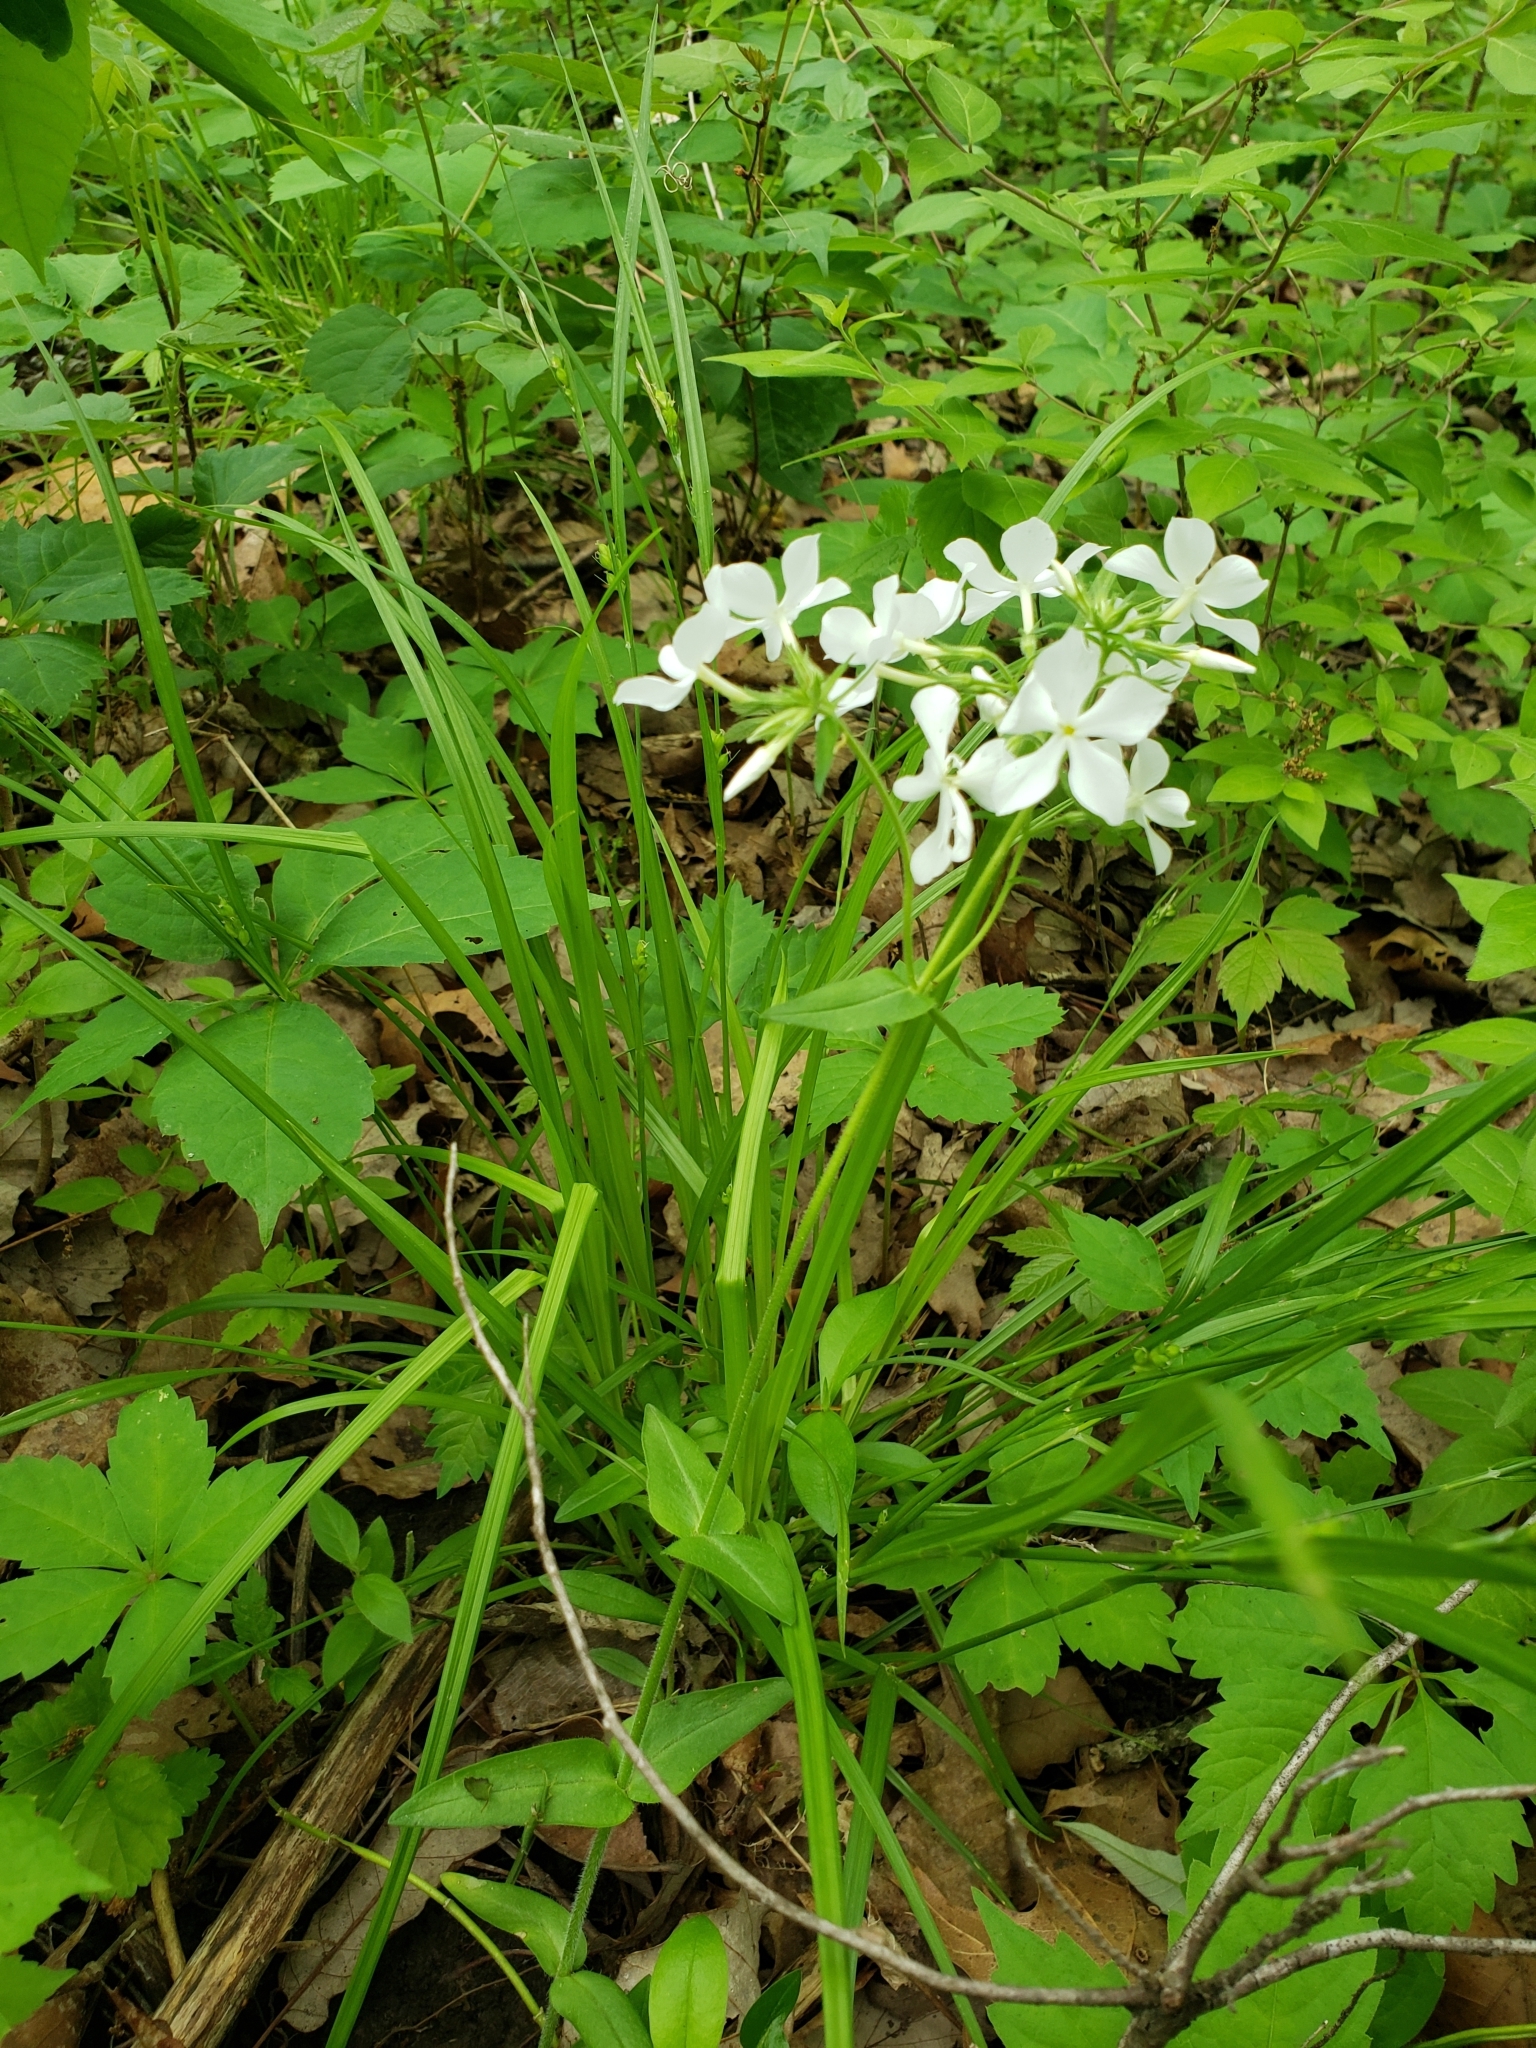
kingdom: Plantae
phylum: Tracheophyta
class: Magnoliopsida
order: Ericales
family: Polemoniaceae
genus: Phlox
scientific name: Phlox divaricata
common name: Blue phlox
